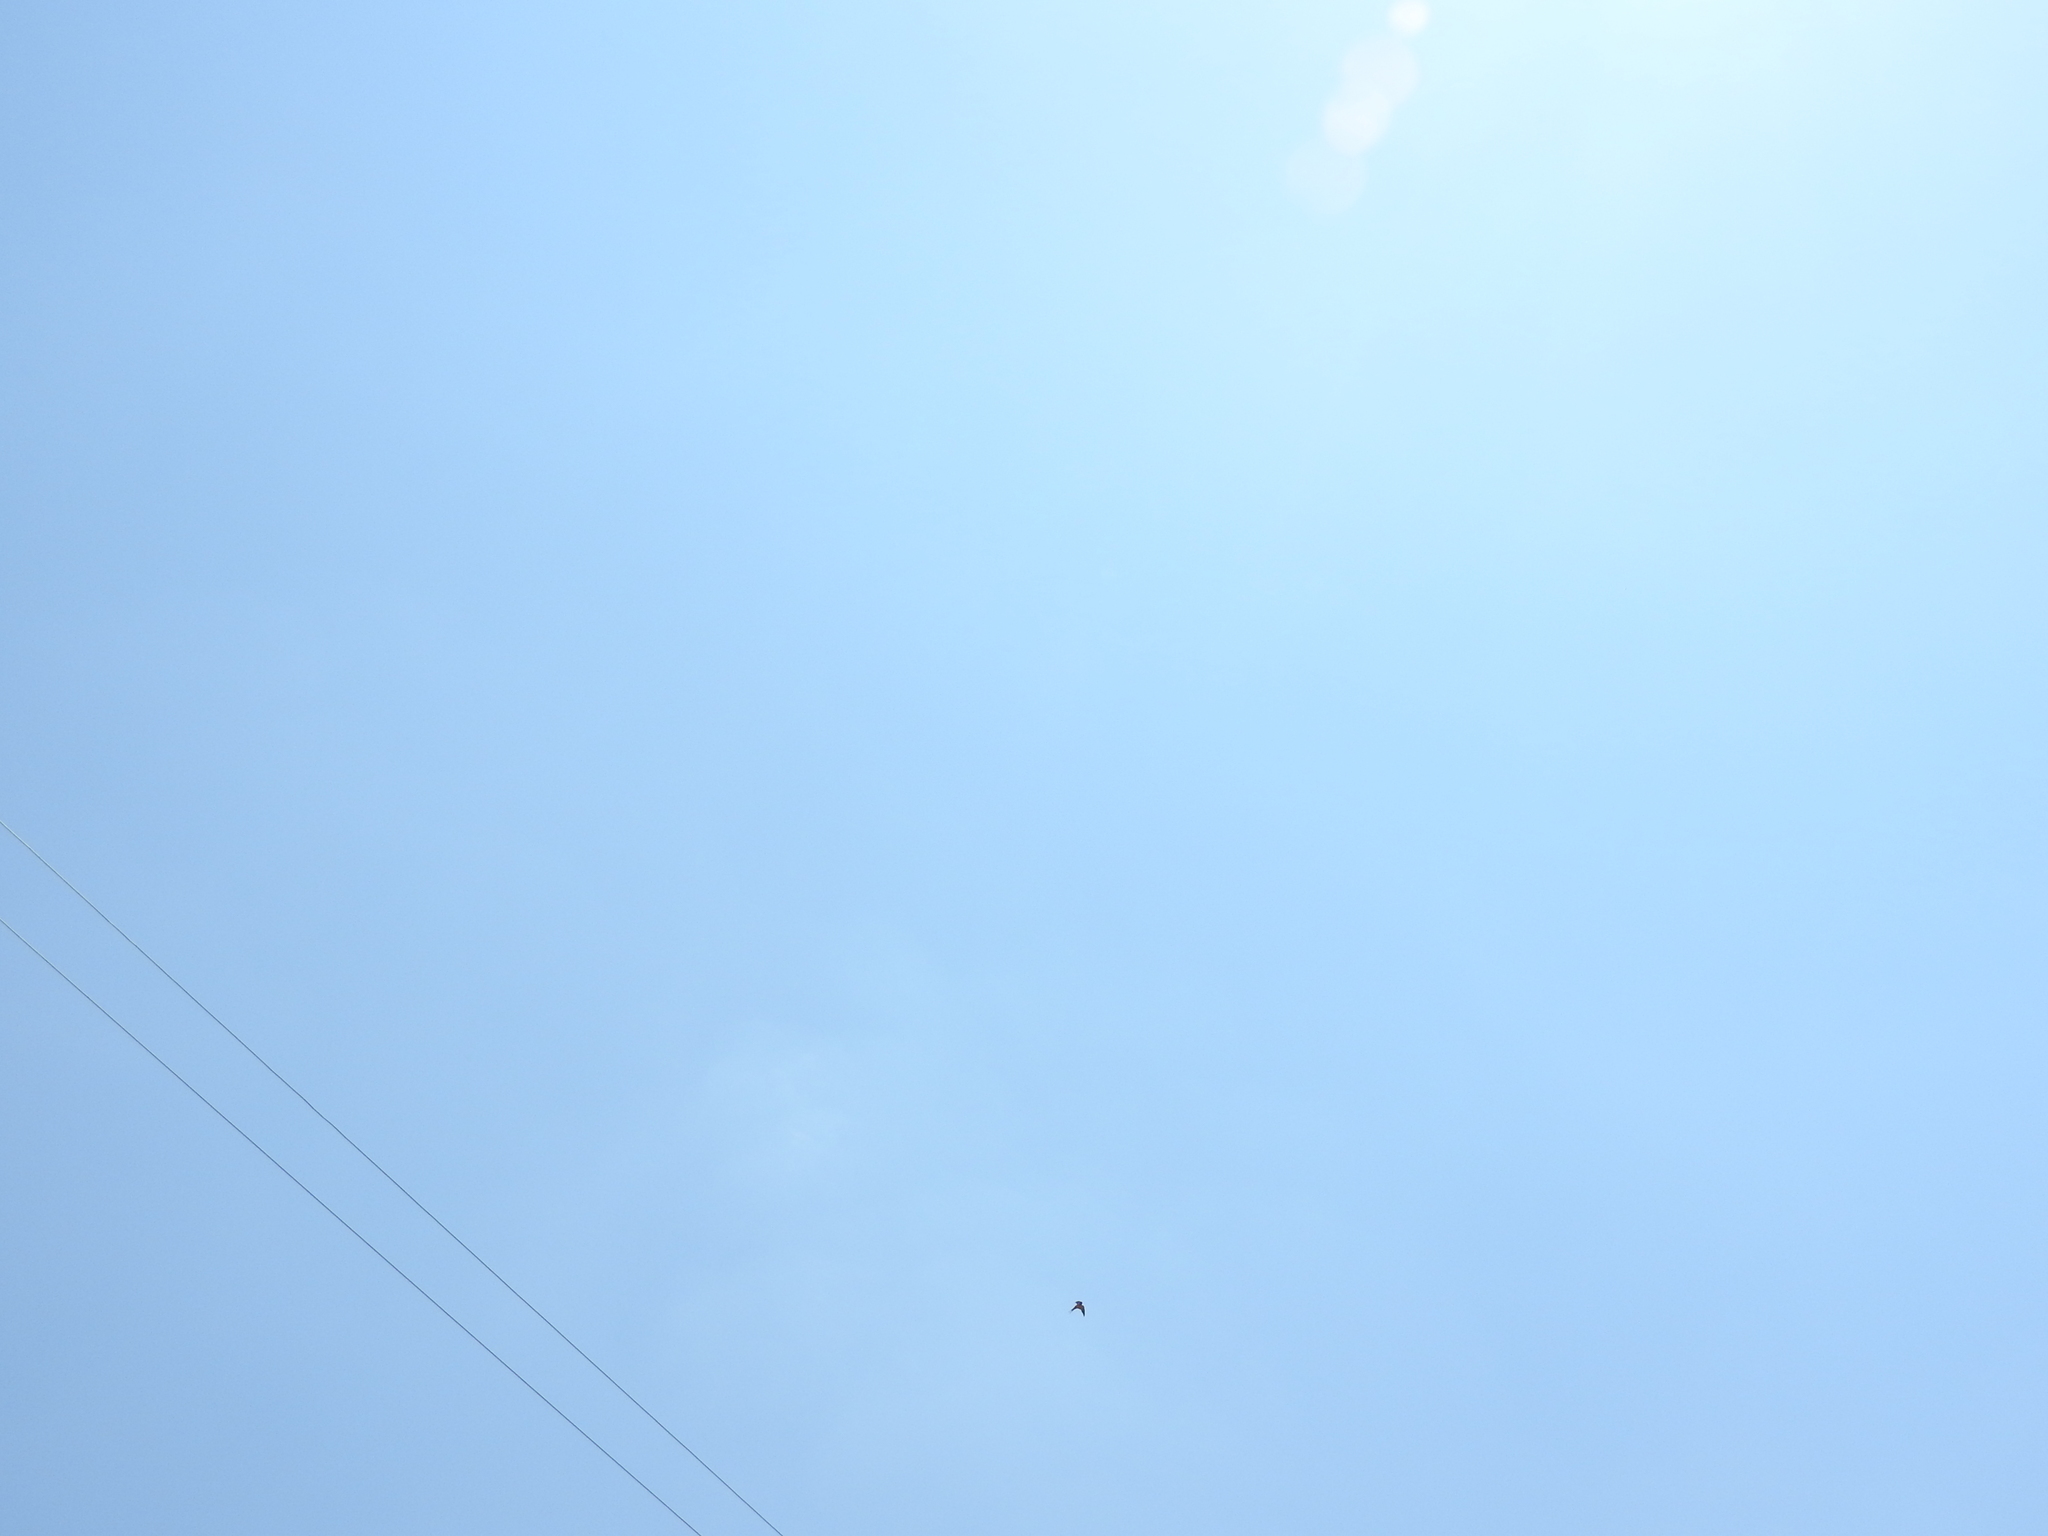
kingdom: Animalia
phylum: Chordata
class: Aves
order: Passeriformes
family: Hirundinidae
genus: Hirundo
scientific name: Hirundo rustica
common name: Barn swallow
